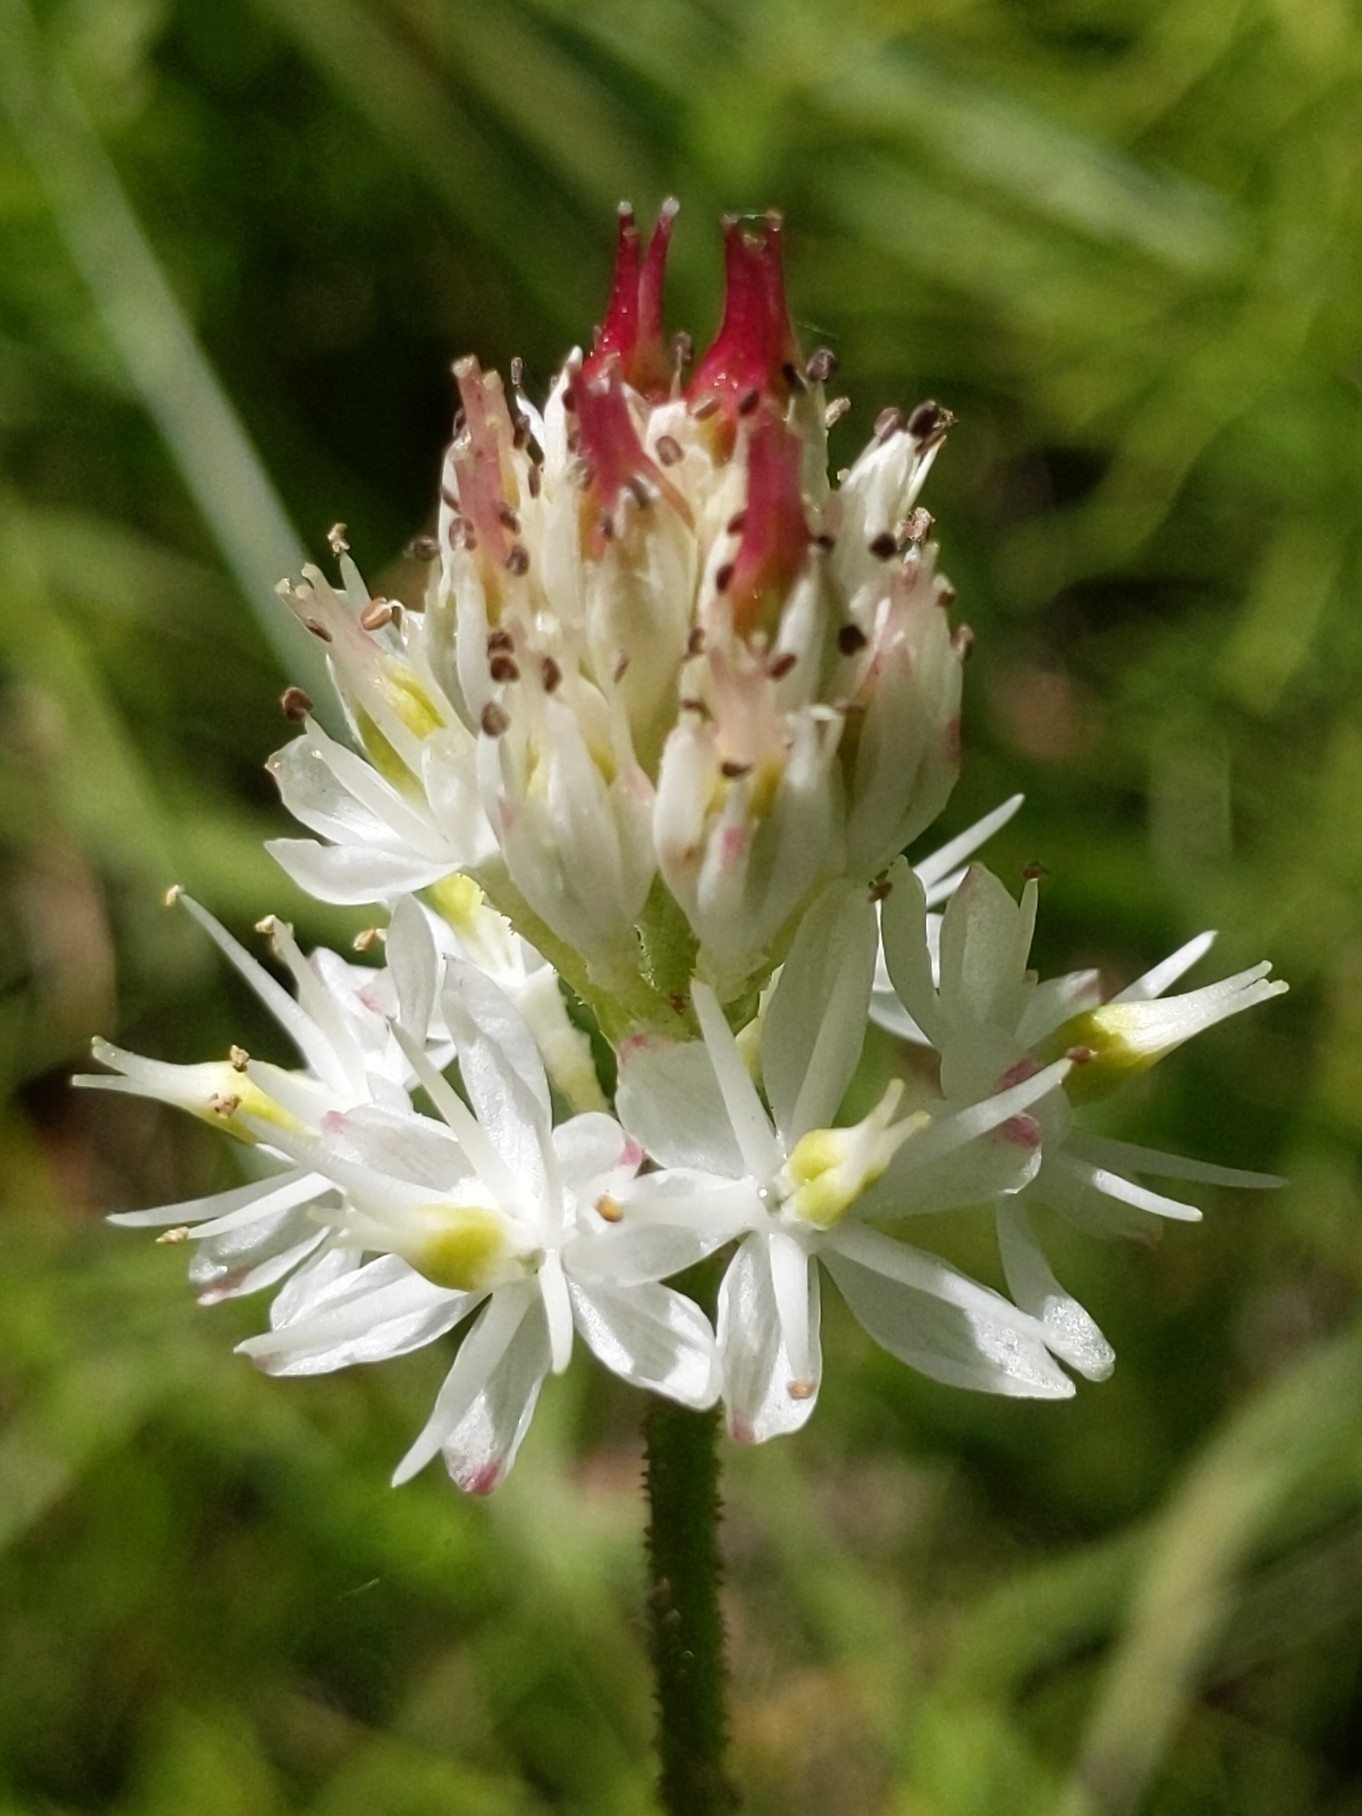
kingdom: Plantae
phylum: Tracheophyta
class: Liliopsida
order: Alismatales
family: Tofieldiaceae
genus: Triantha
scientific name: Triantha occidentalis
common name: Western false asphodel
